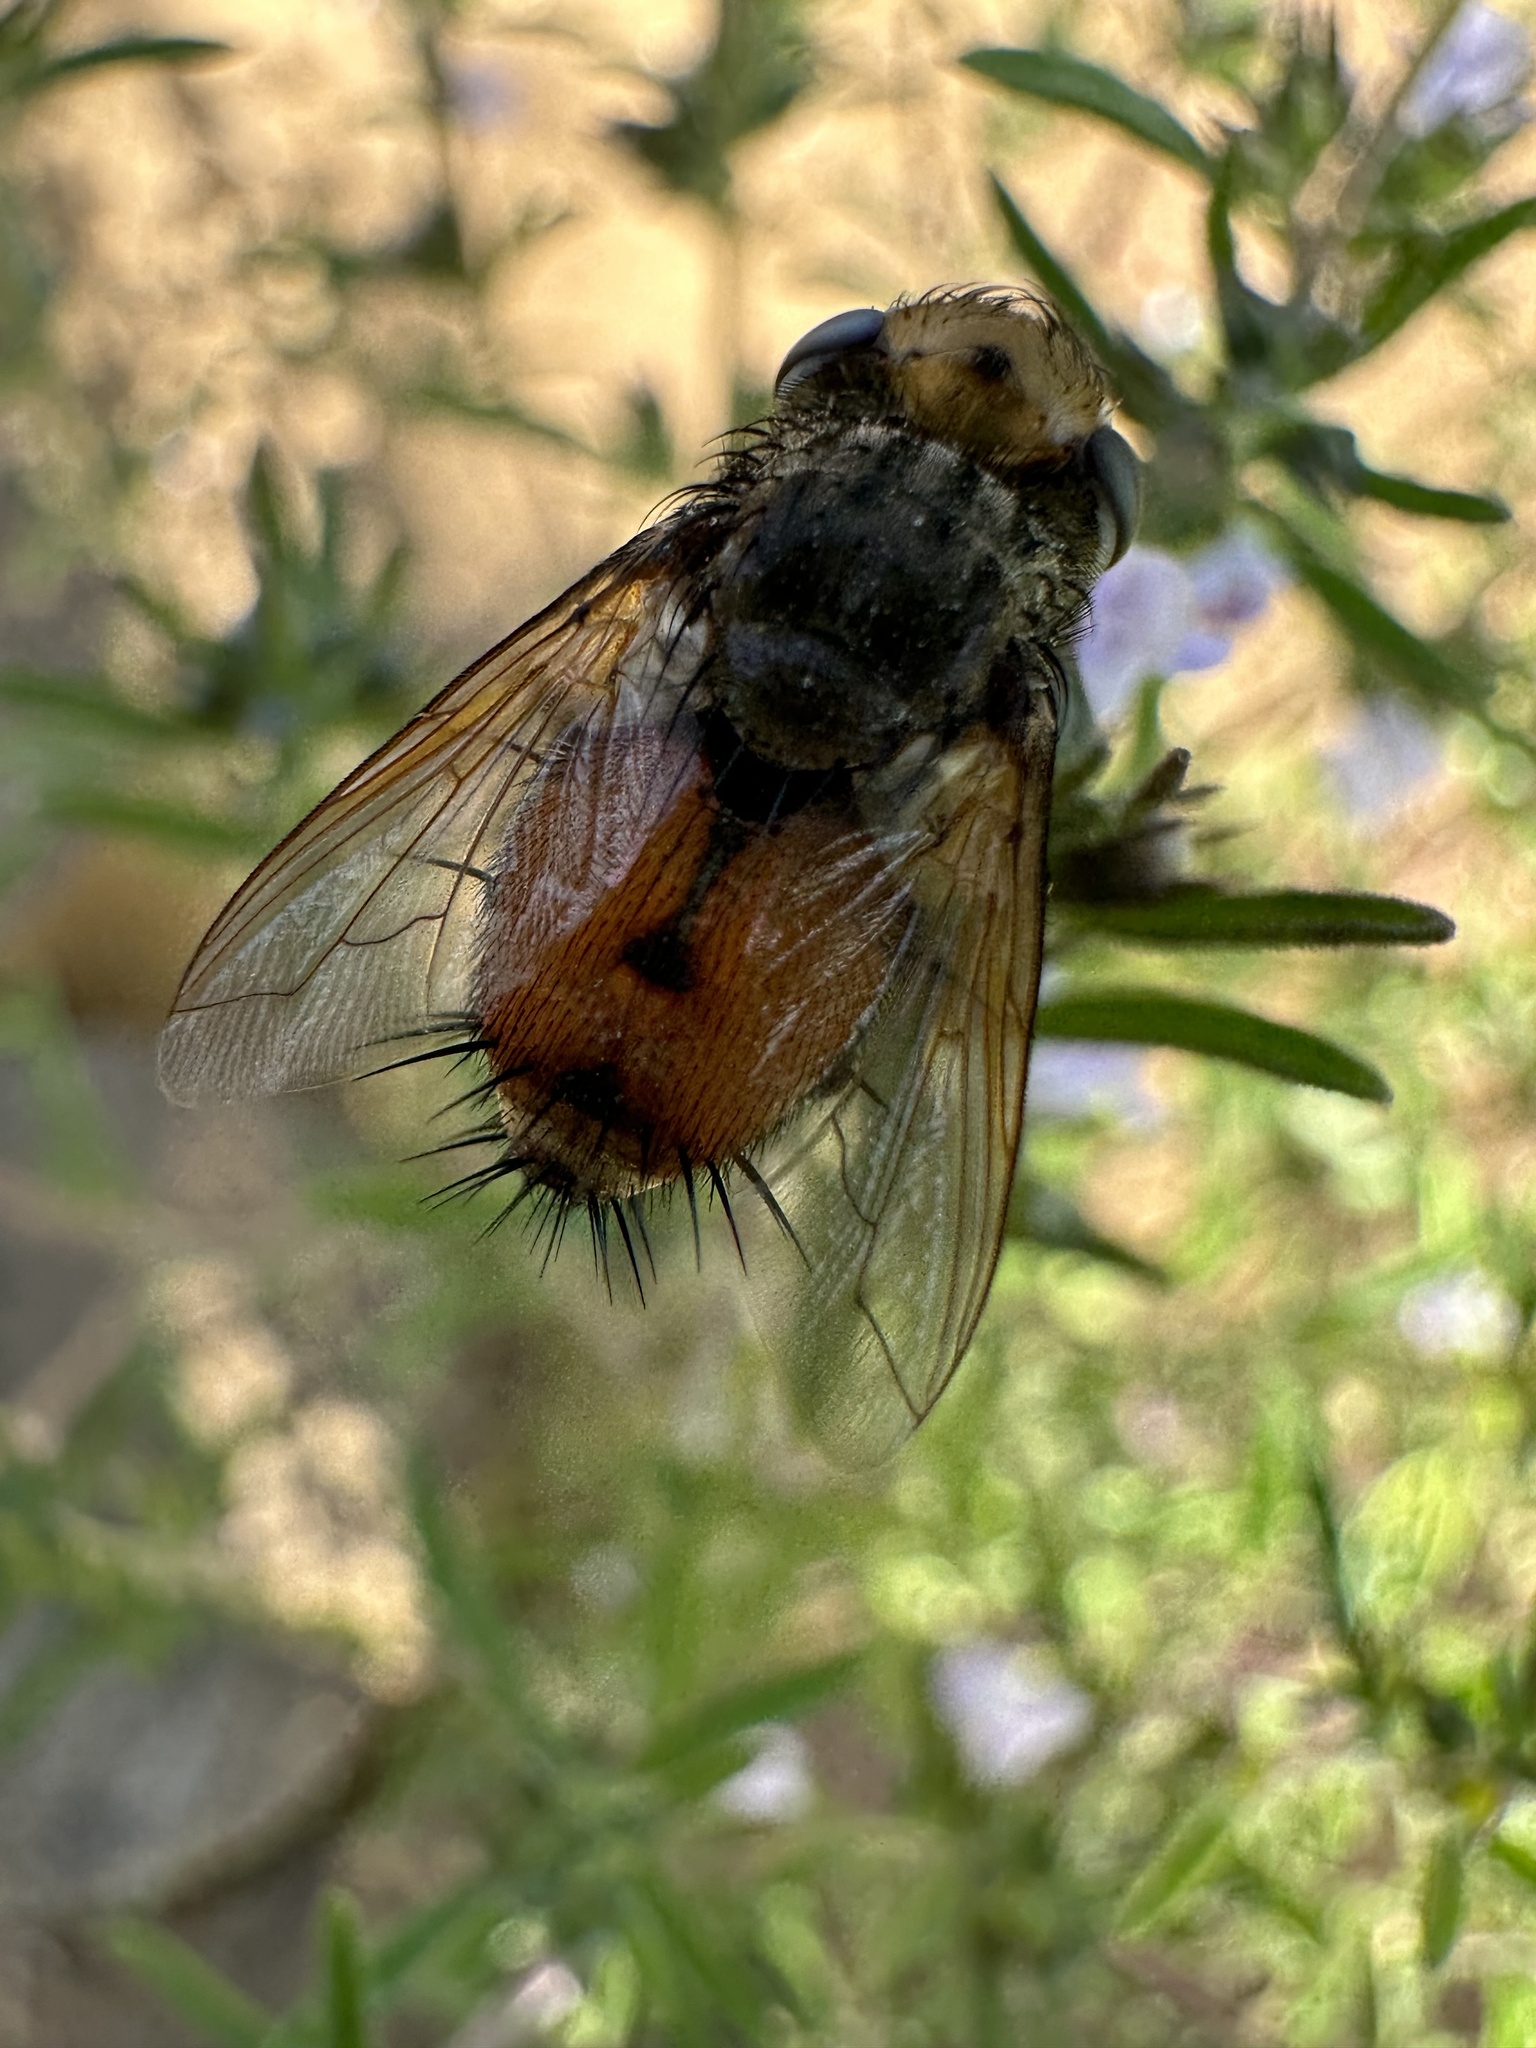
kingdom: Animalia
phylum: Arthropoda
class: Insecta
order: Diptera
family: Tachinidae
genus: Gonia
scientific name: Gonia lineata
